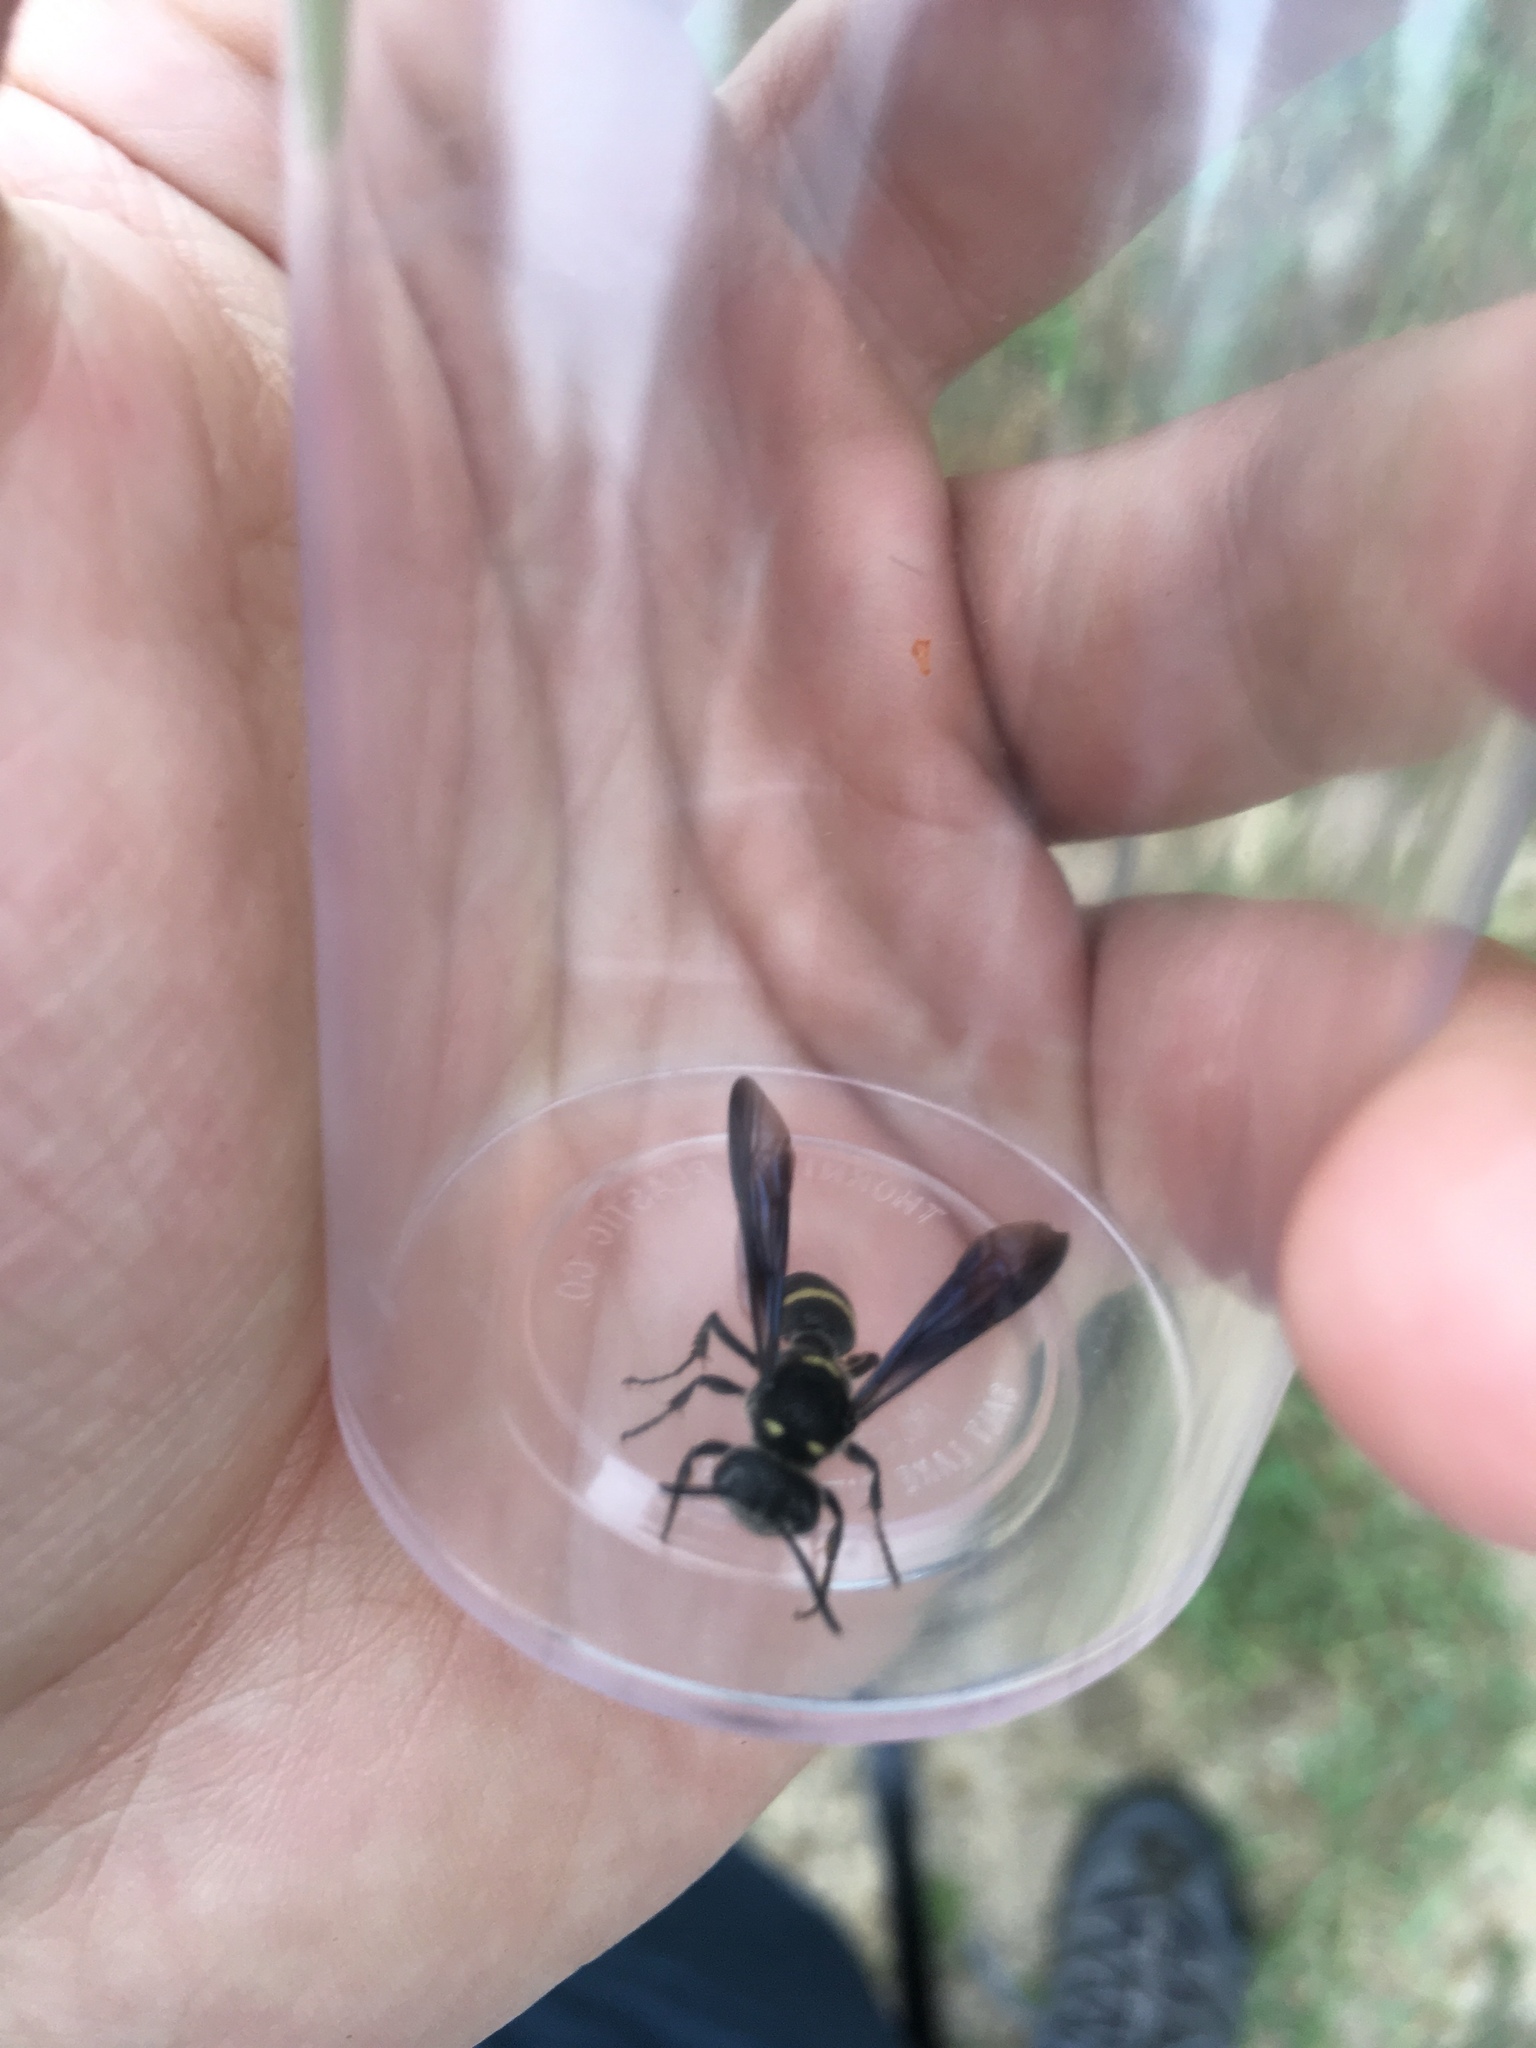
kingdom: Animalia
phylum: Arthropoda
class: Insecta
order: Hymenoptera
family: Crabronidae
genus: Cerceris
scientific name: Cerceris fumipennis
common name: Smokey-winged beetle bandit wasp
